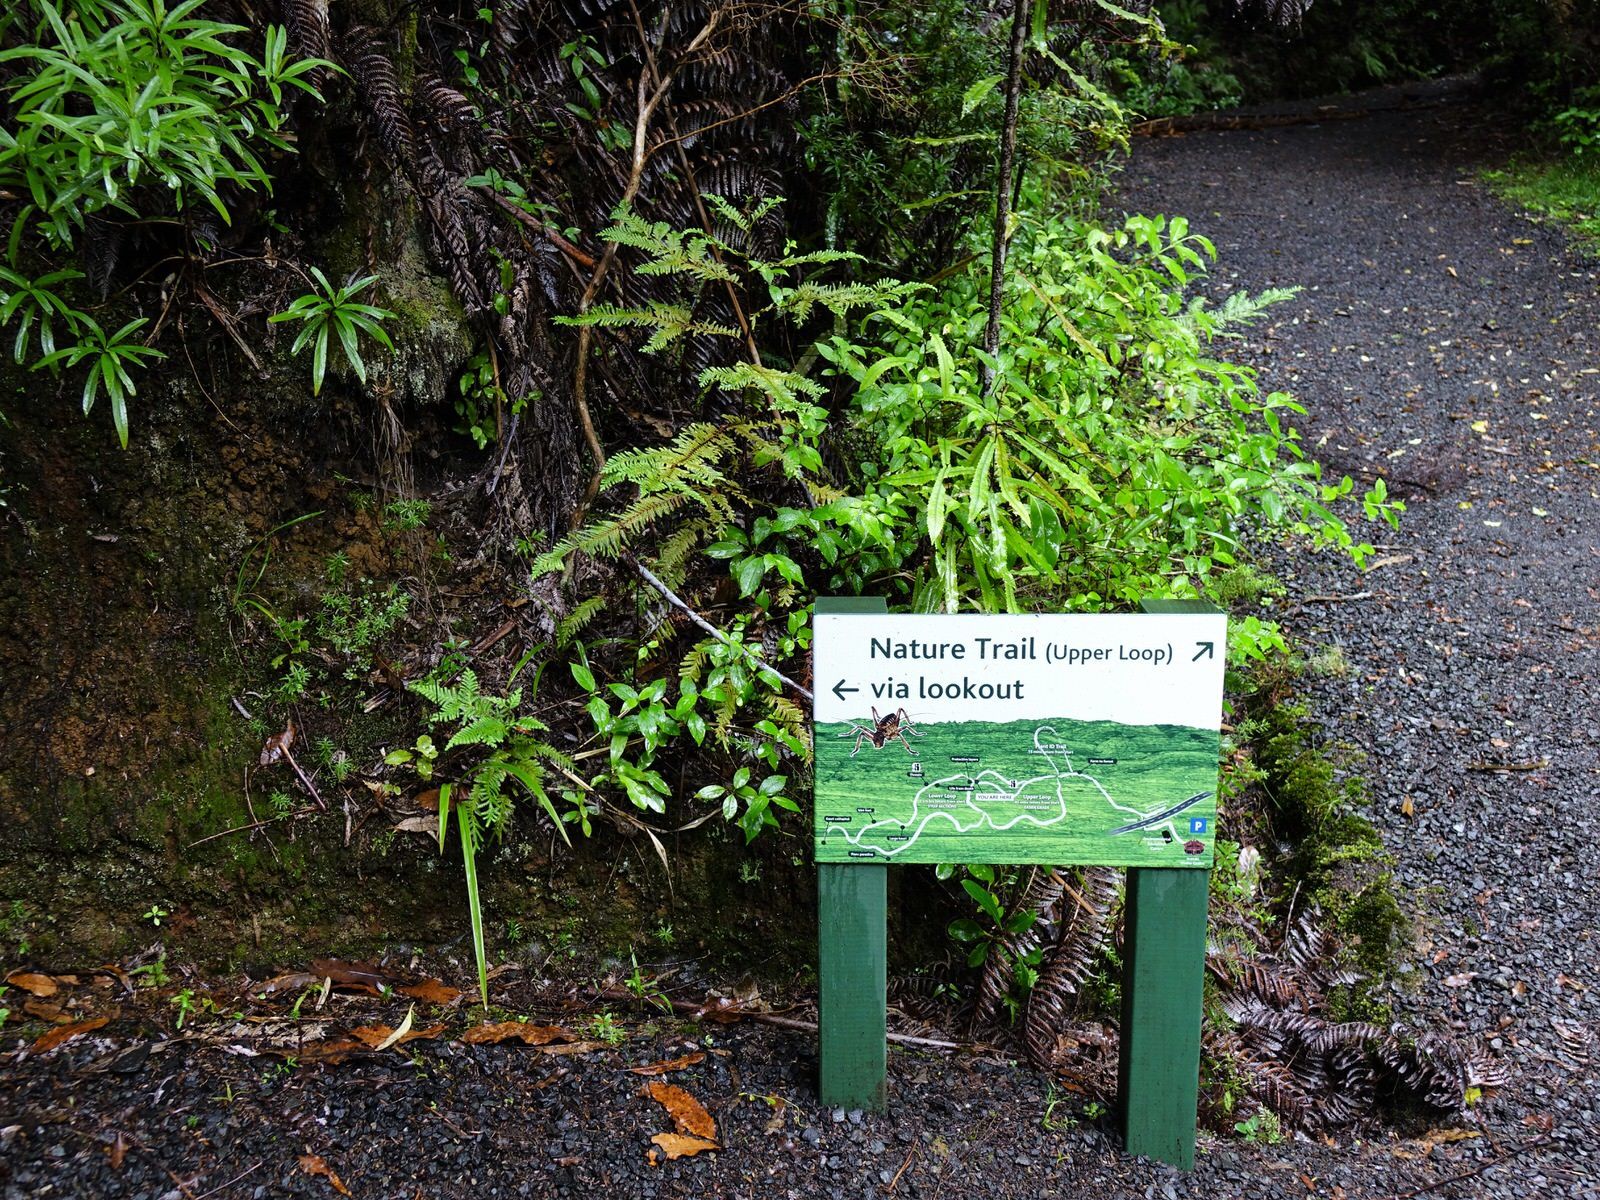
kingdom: Plantae
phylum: Tracheophyta
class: Pinopsida
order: Pinales
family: Cupressaceae
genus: Libocedrus
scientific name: Libocedrus plumosa
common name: New zealand cedar
